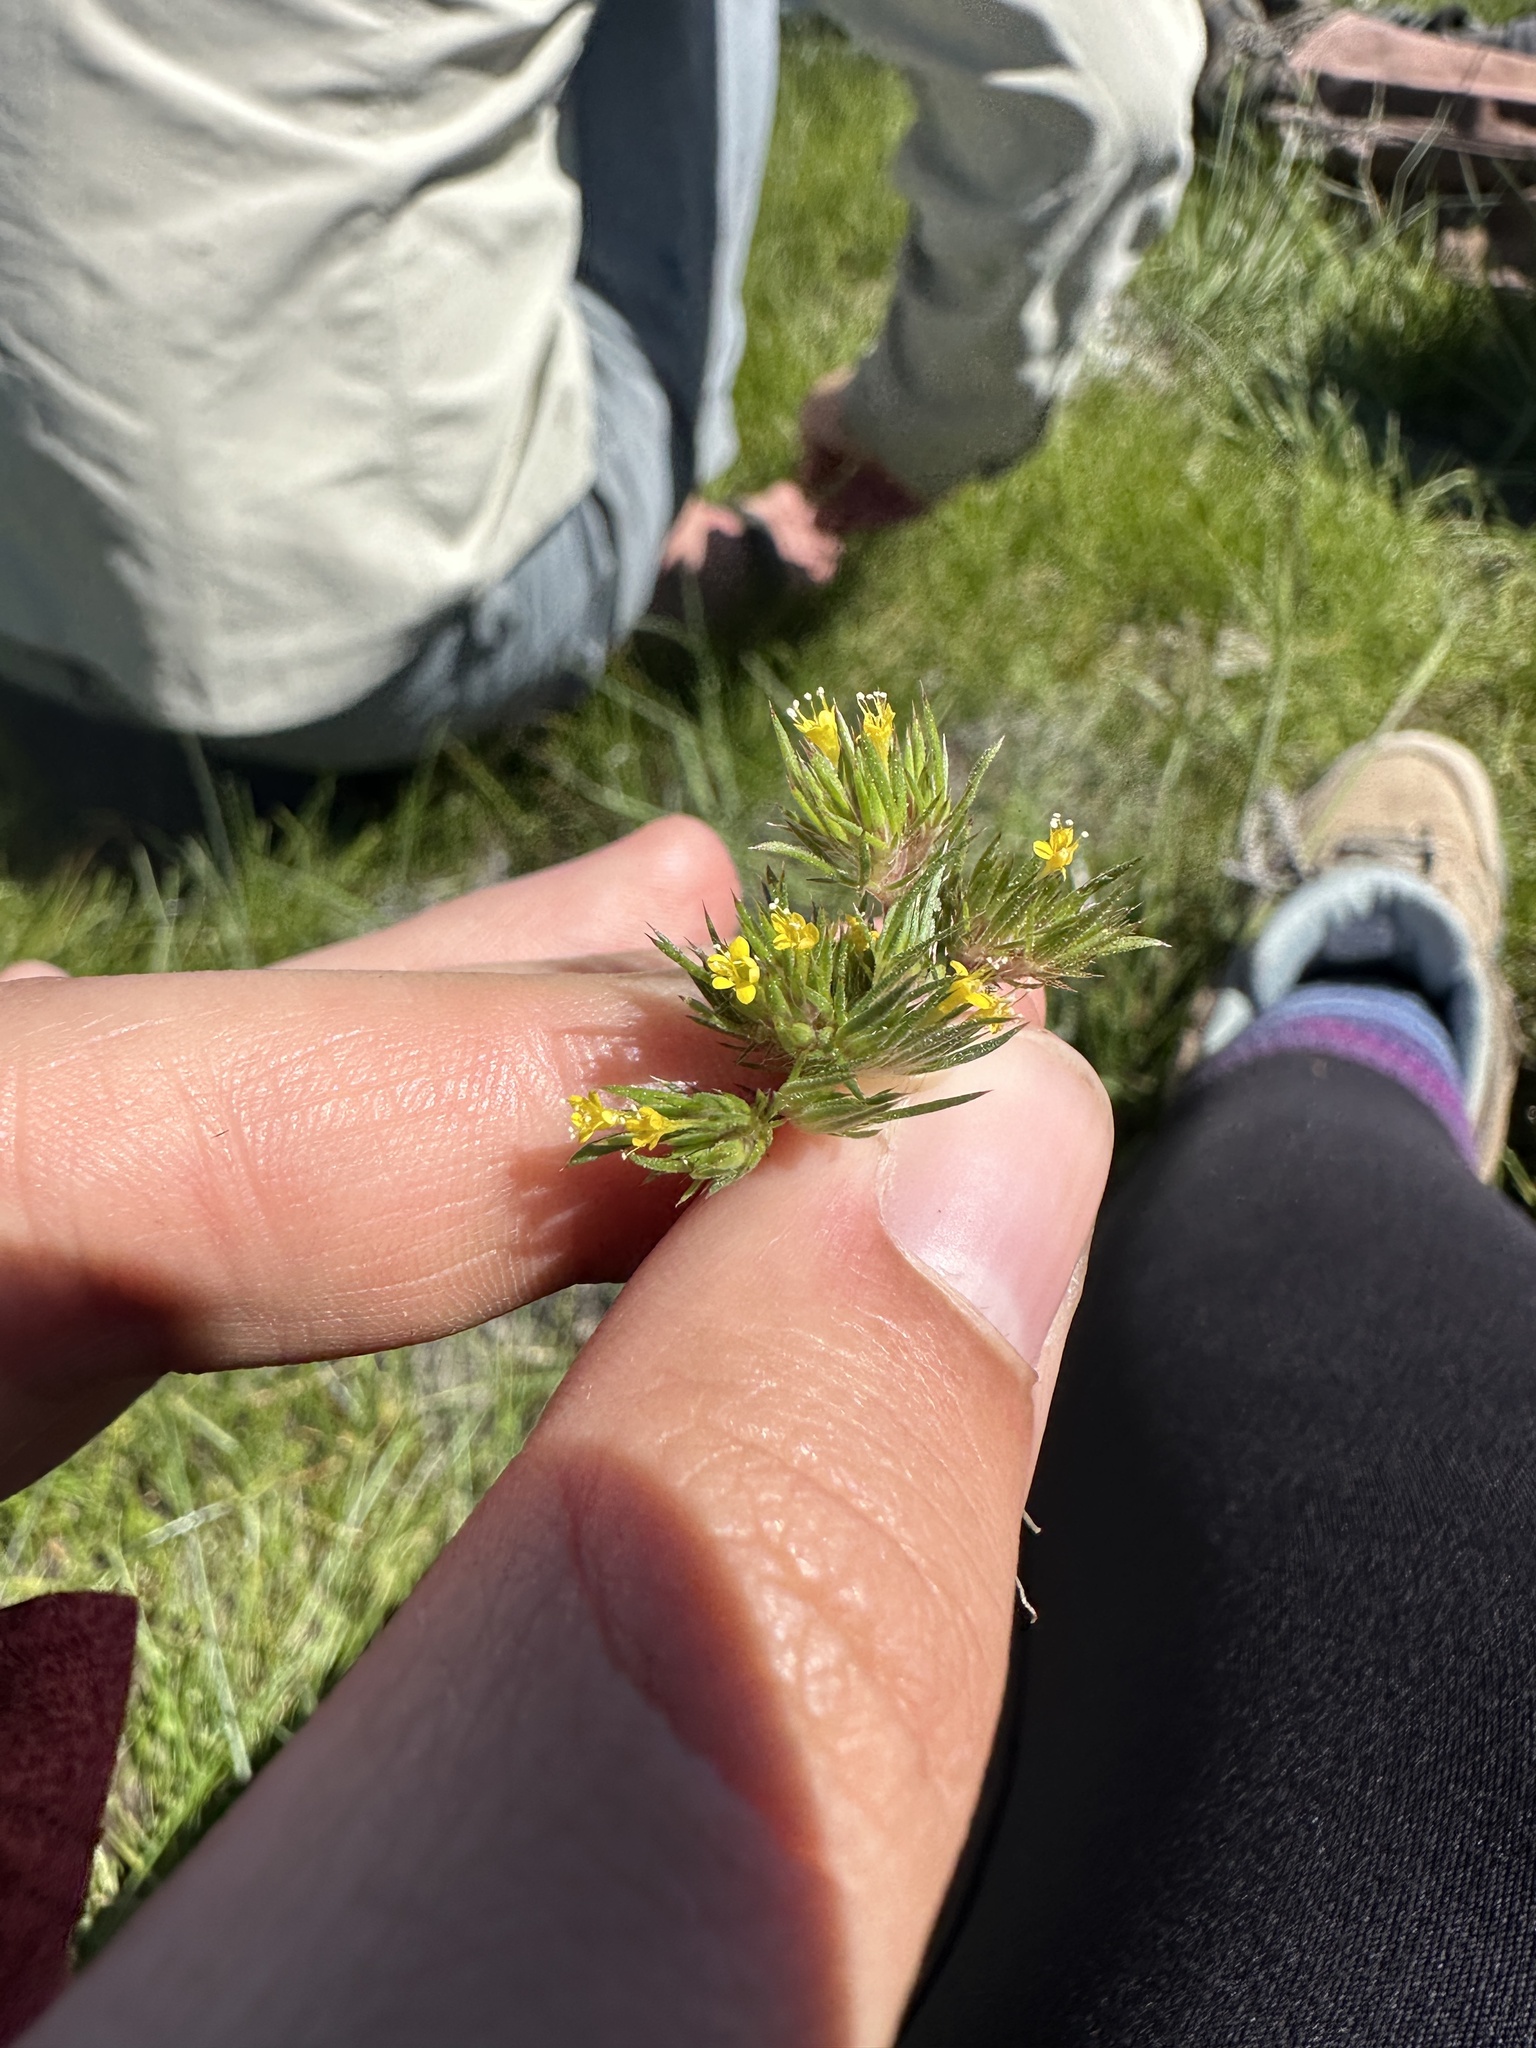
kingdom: Plantae
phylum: Tracheophyta
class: Magnoliopsida
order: Ericales
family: Polemoniaceae
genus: Navarretia
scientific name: Navarretia breweri
